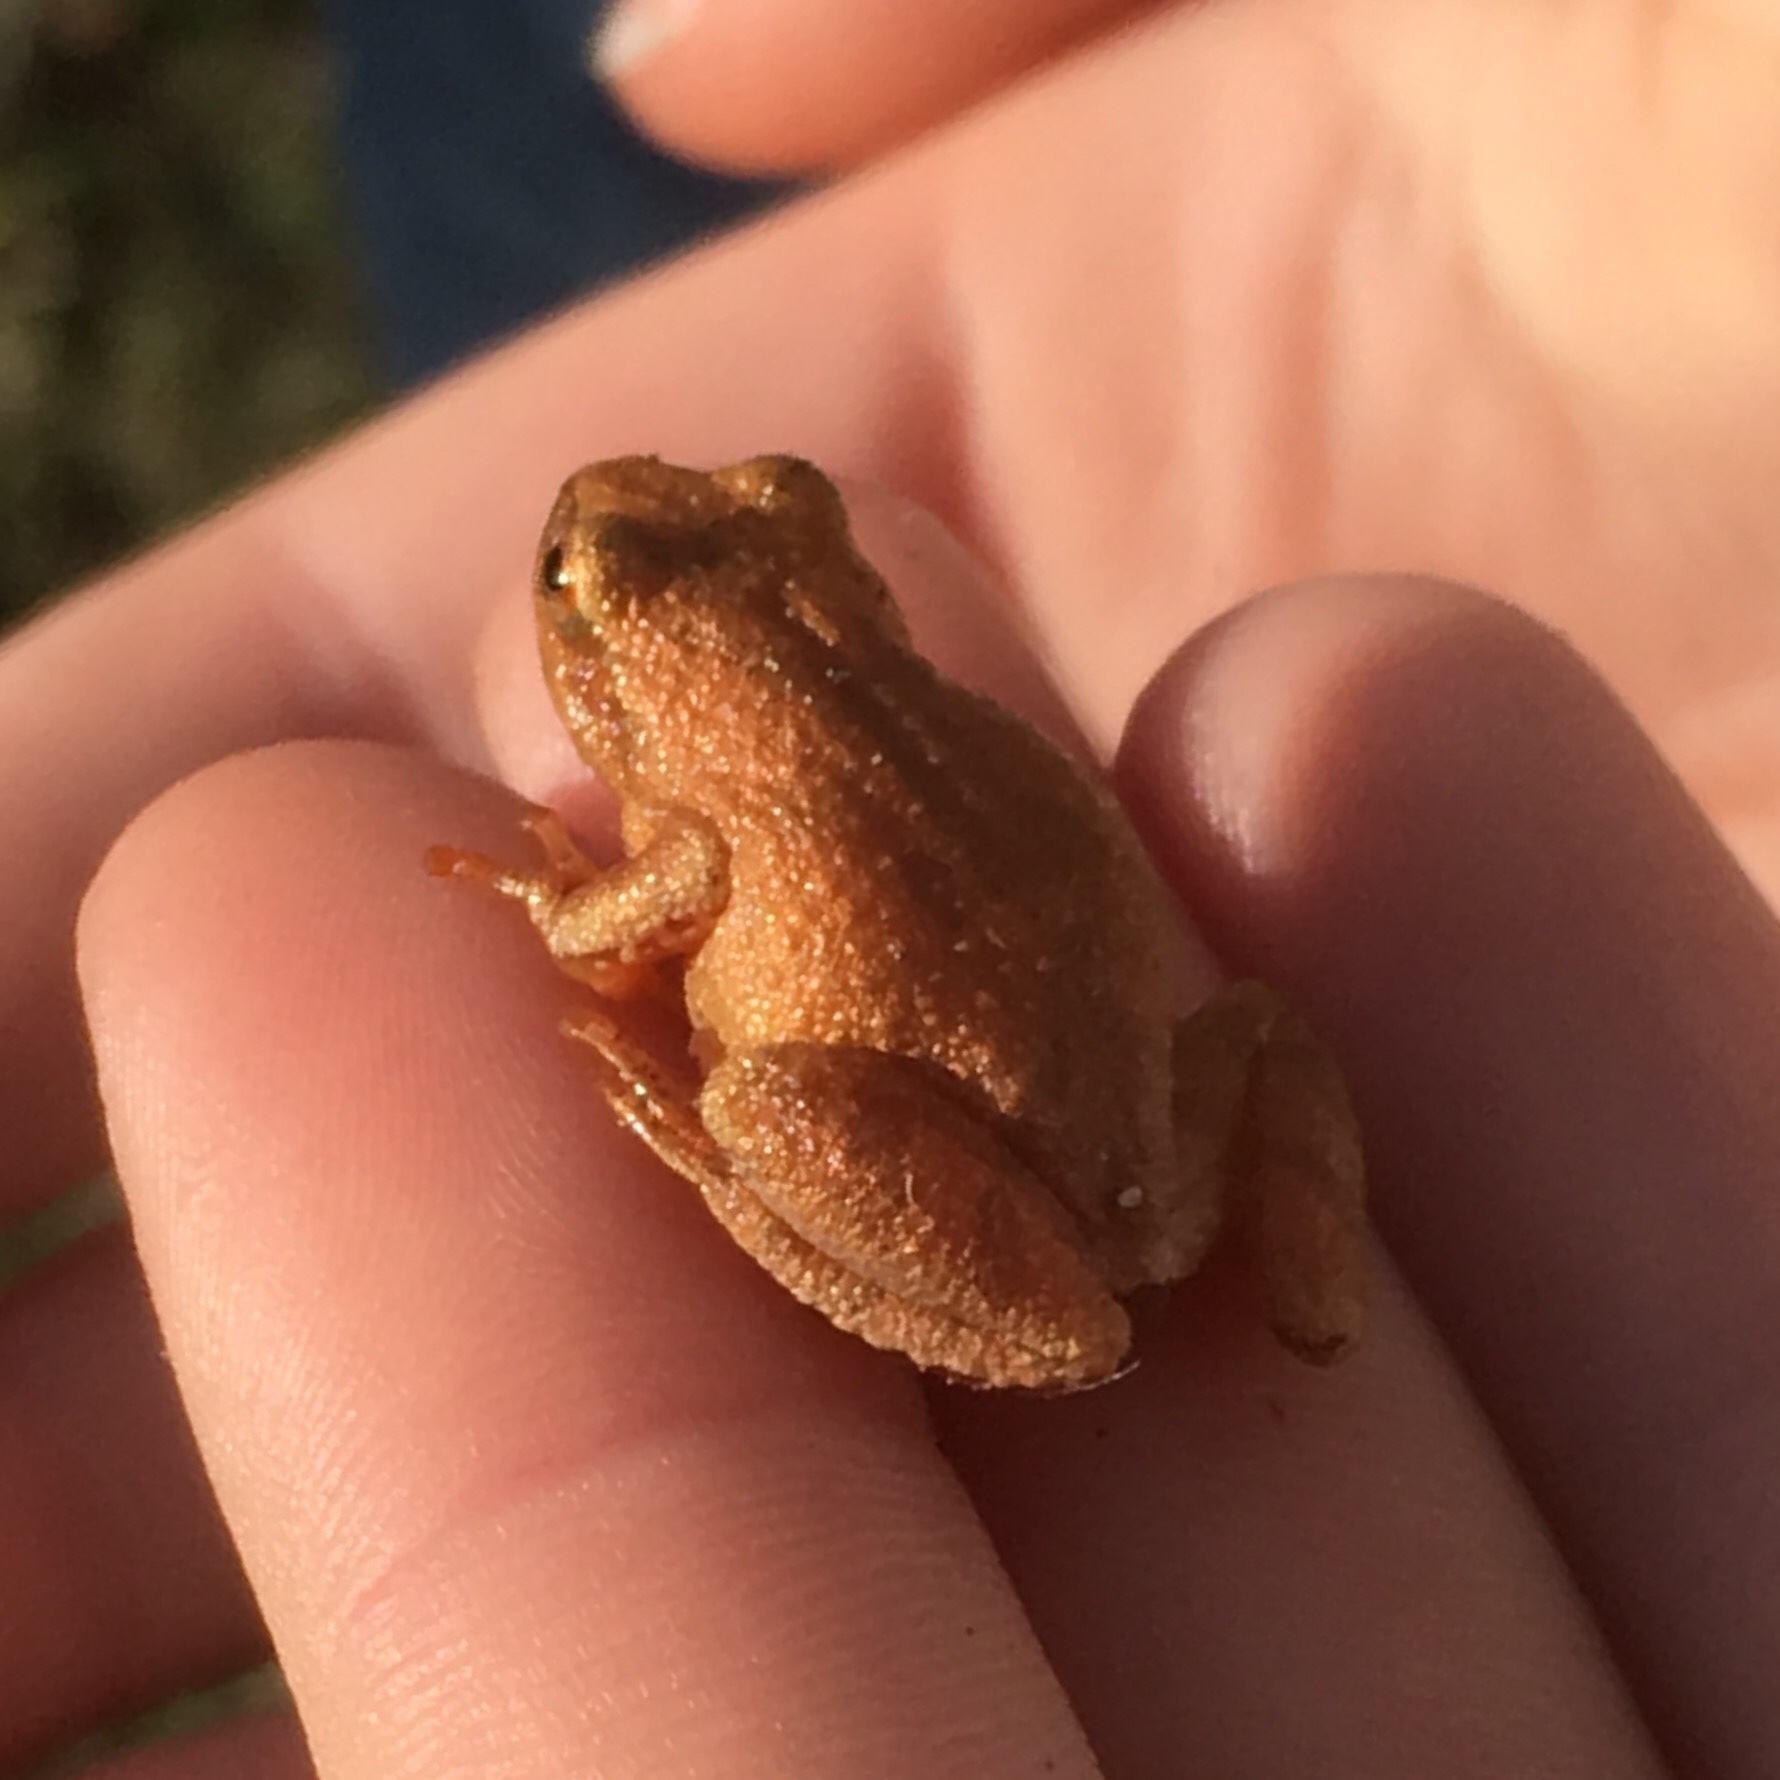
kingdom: Animalia
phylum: Chordata
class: Amphibia
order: Anura
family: Hylidae
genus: Pseudacris
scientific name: Pseudacris crucifer
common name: Spring peeper
